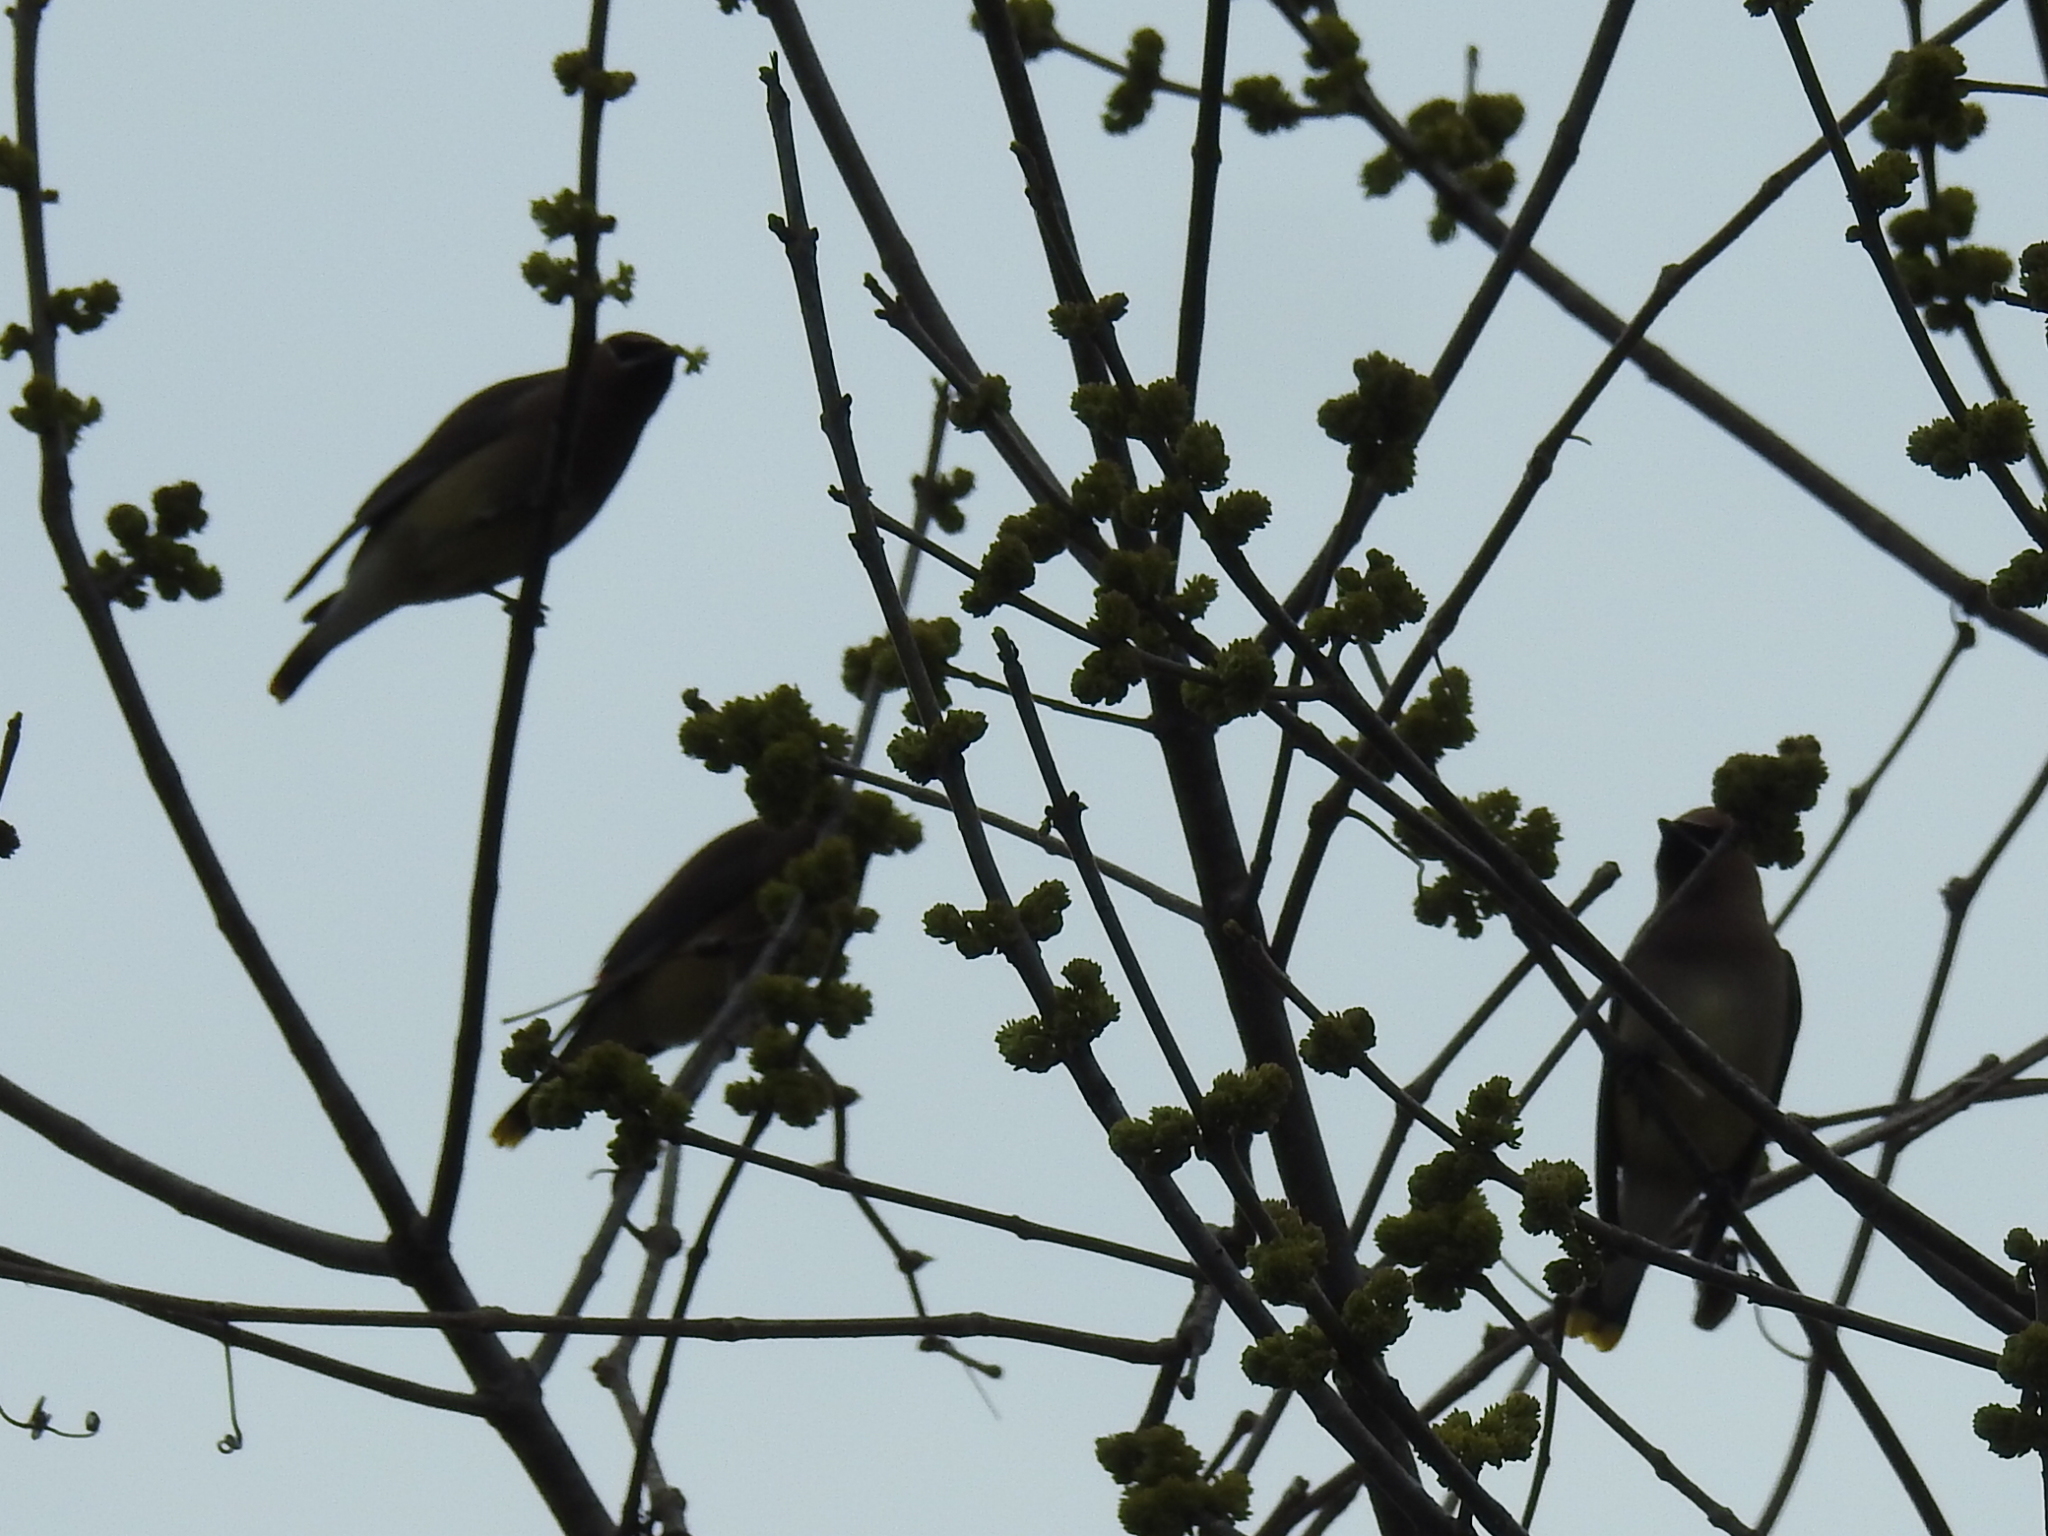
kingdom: Animalia
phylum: Chordata
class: Aves
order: Passeriformes
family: Bombycillidae
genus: Bombycilla
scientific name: Bombycilla cedrorum
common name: Cedar waxwing
